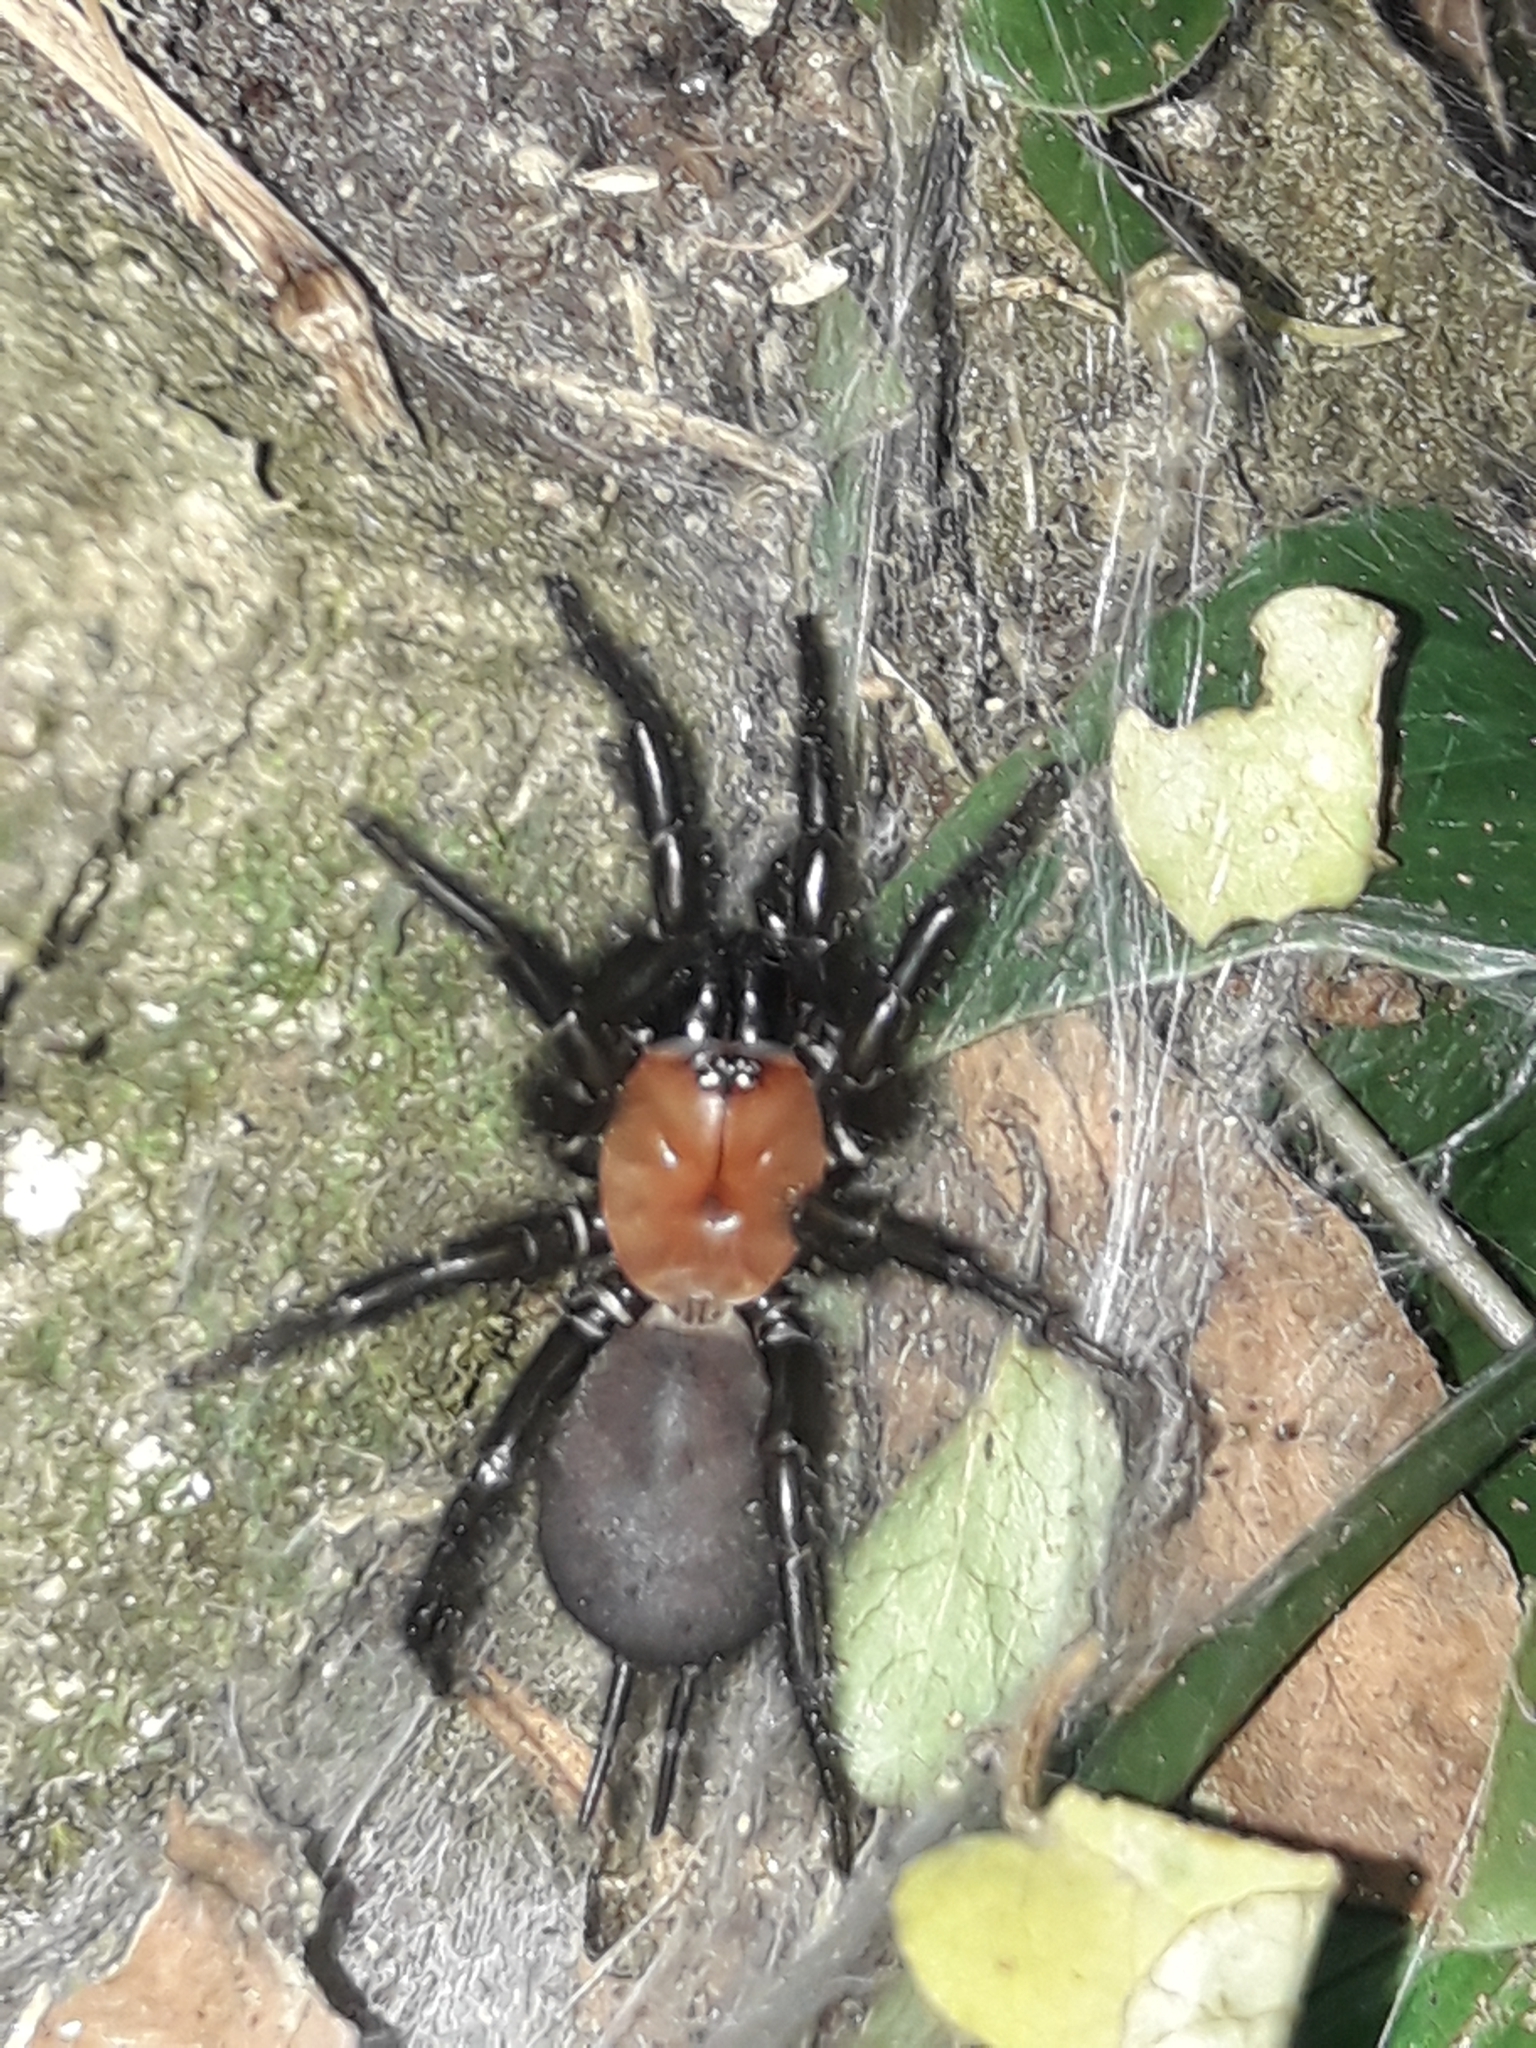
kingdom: Animalia
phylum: Arthropoda
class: Arachnida
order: Araneae
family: Porrhothelidae
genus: Porrhothele
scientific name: Porrhothele antipodiana
